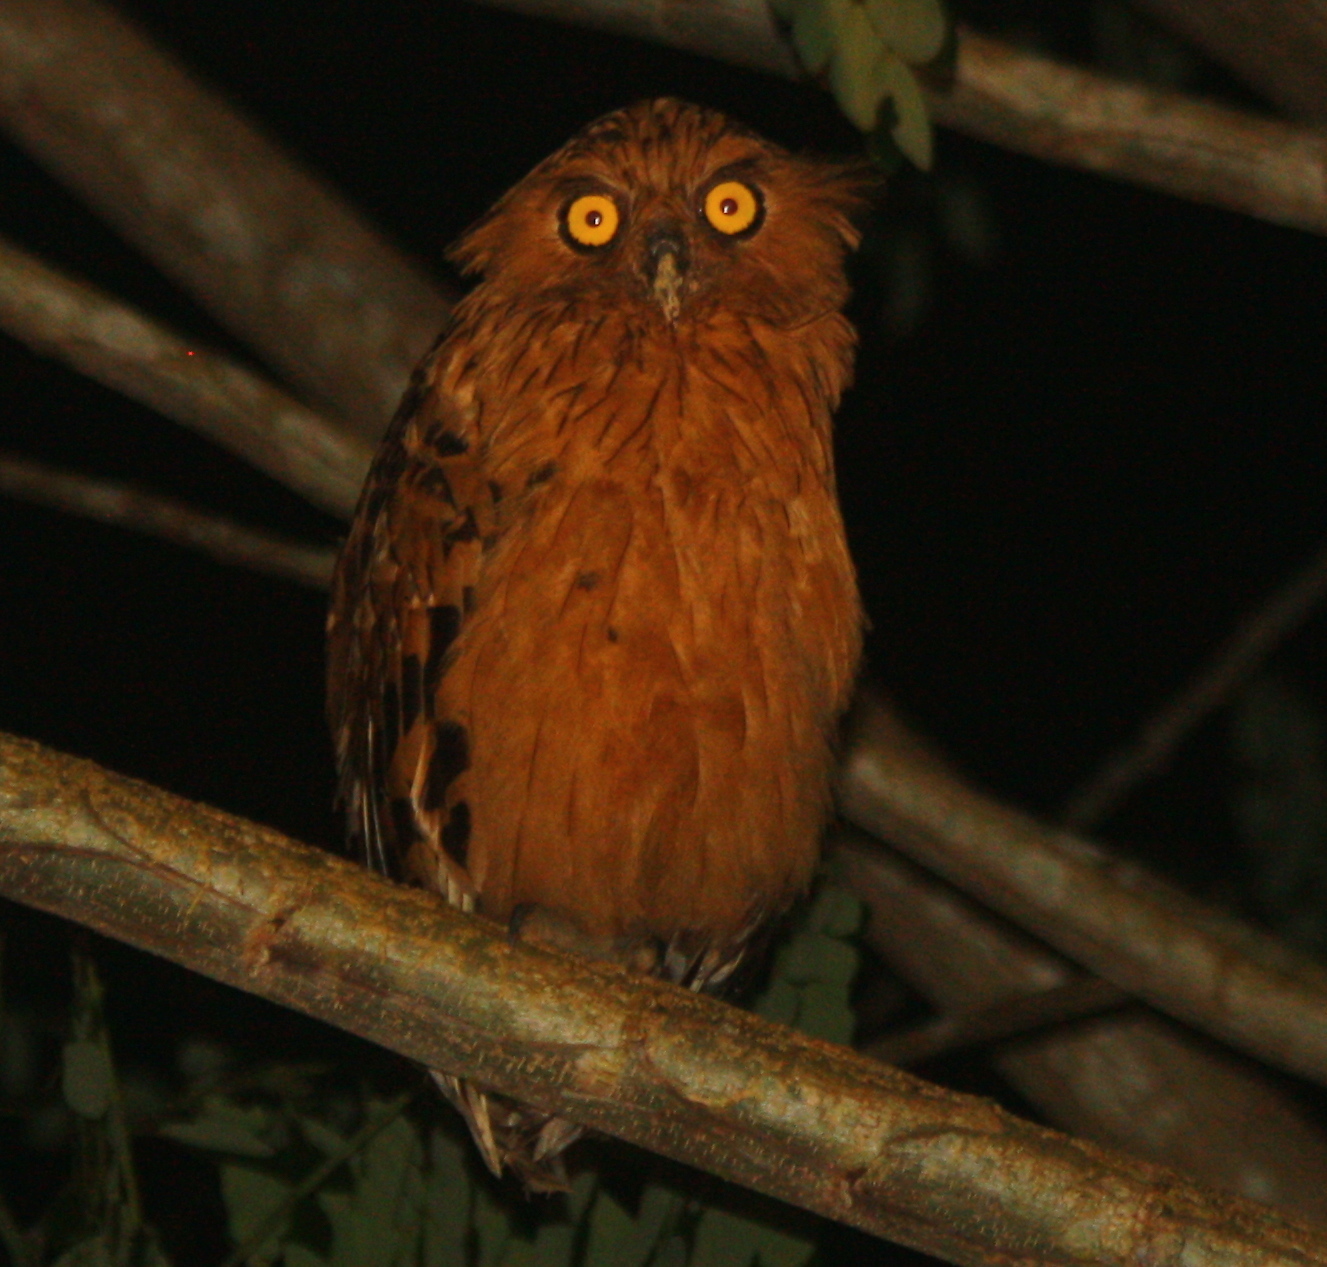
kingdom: Animalia
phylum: Chordata
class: Aves
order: Strigiformes
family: Strigidae
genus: Ketupa
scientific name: Ketupa ketupu
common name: Buffy fish-owl
